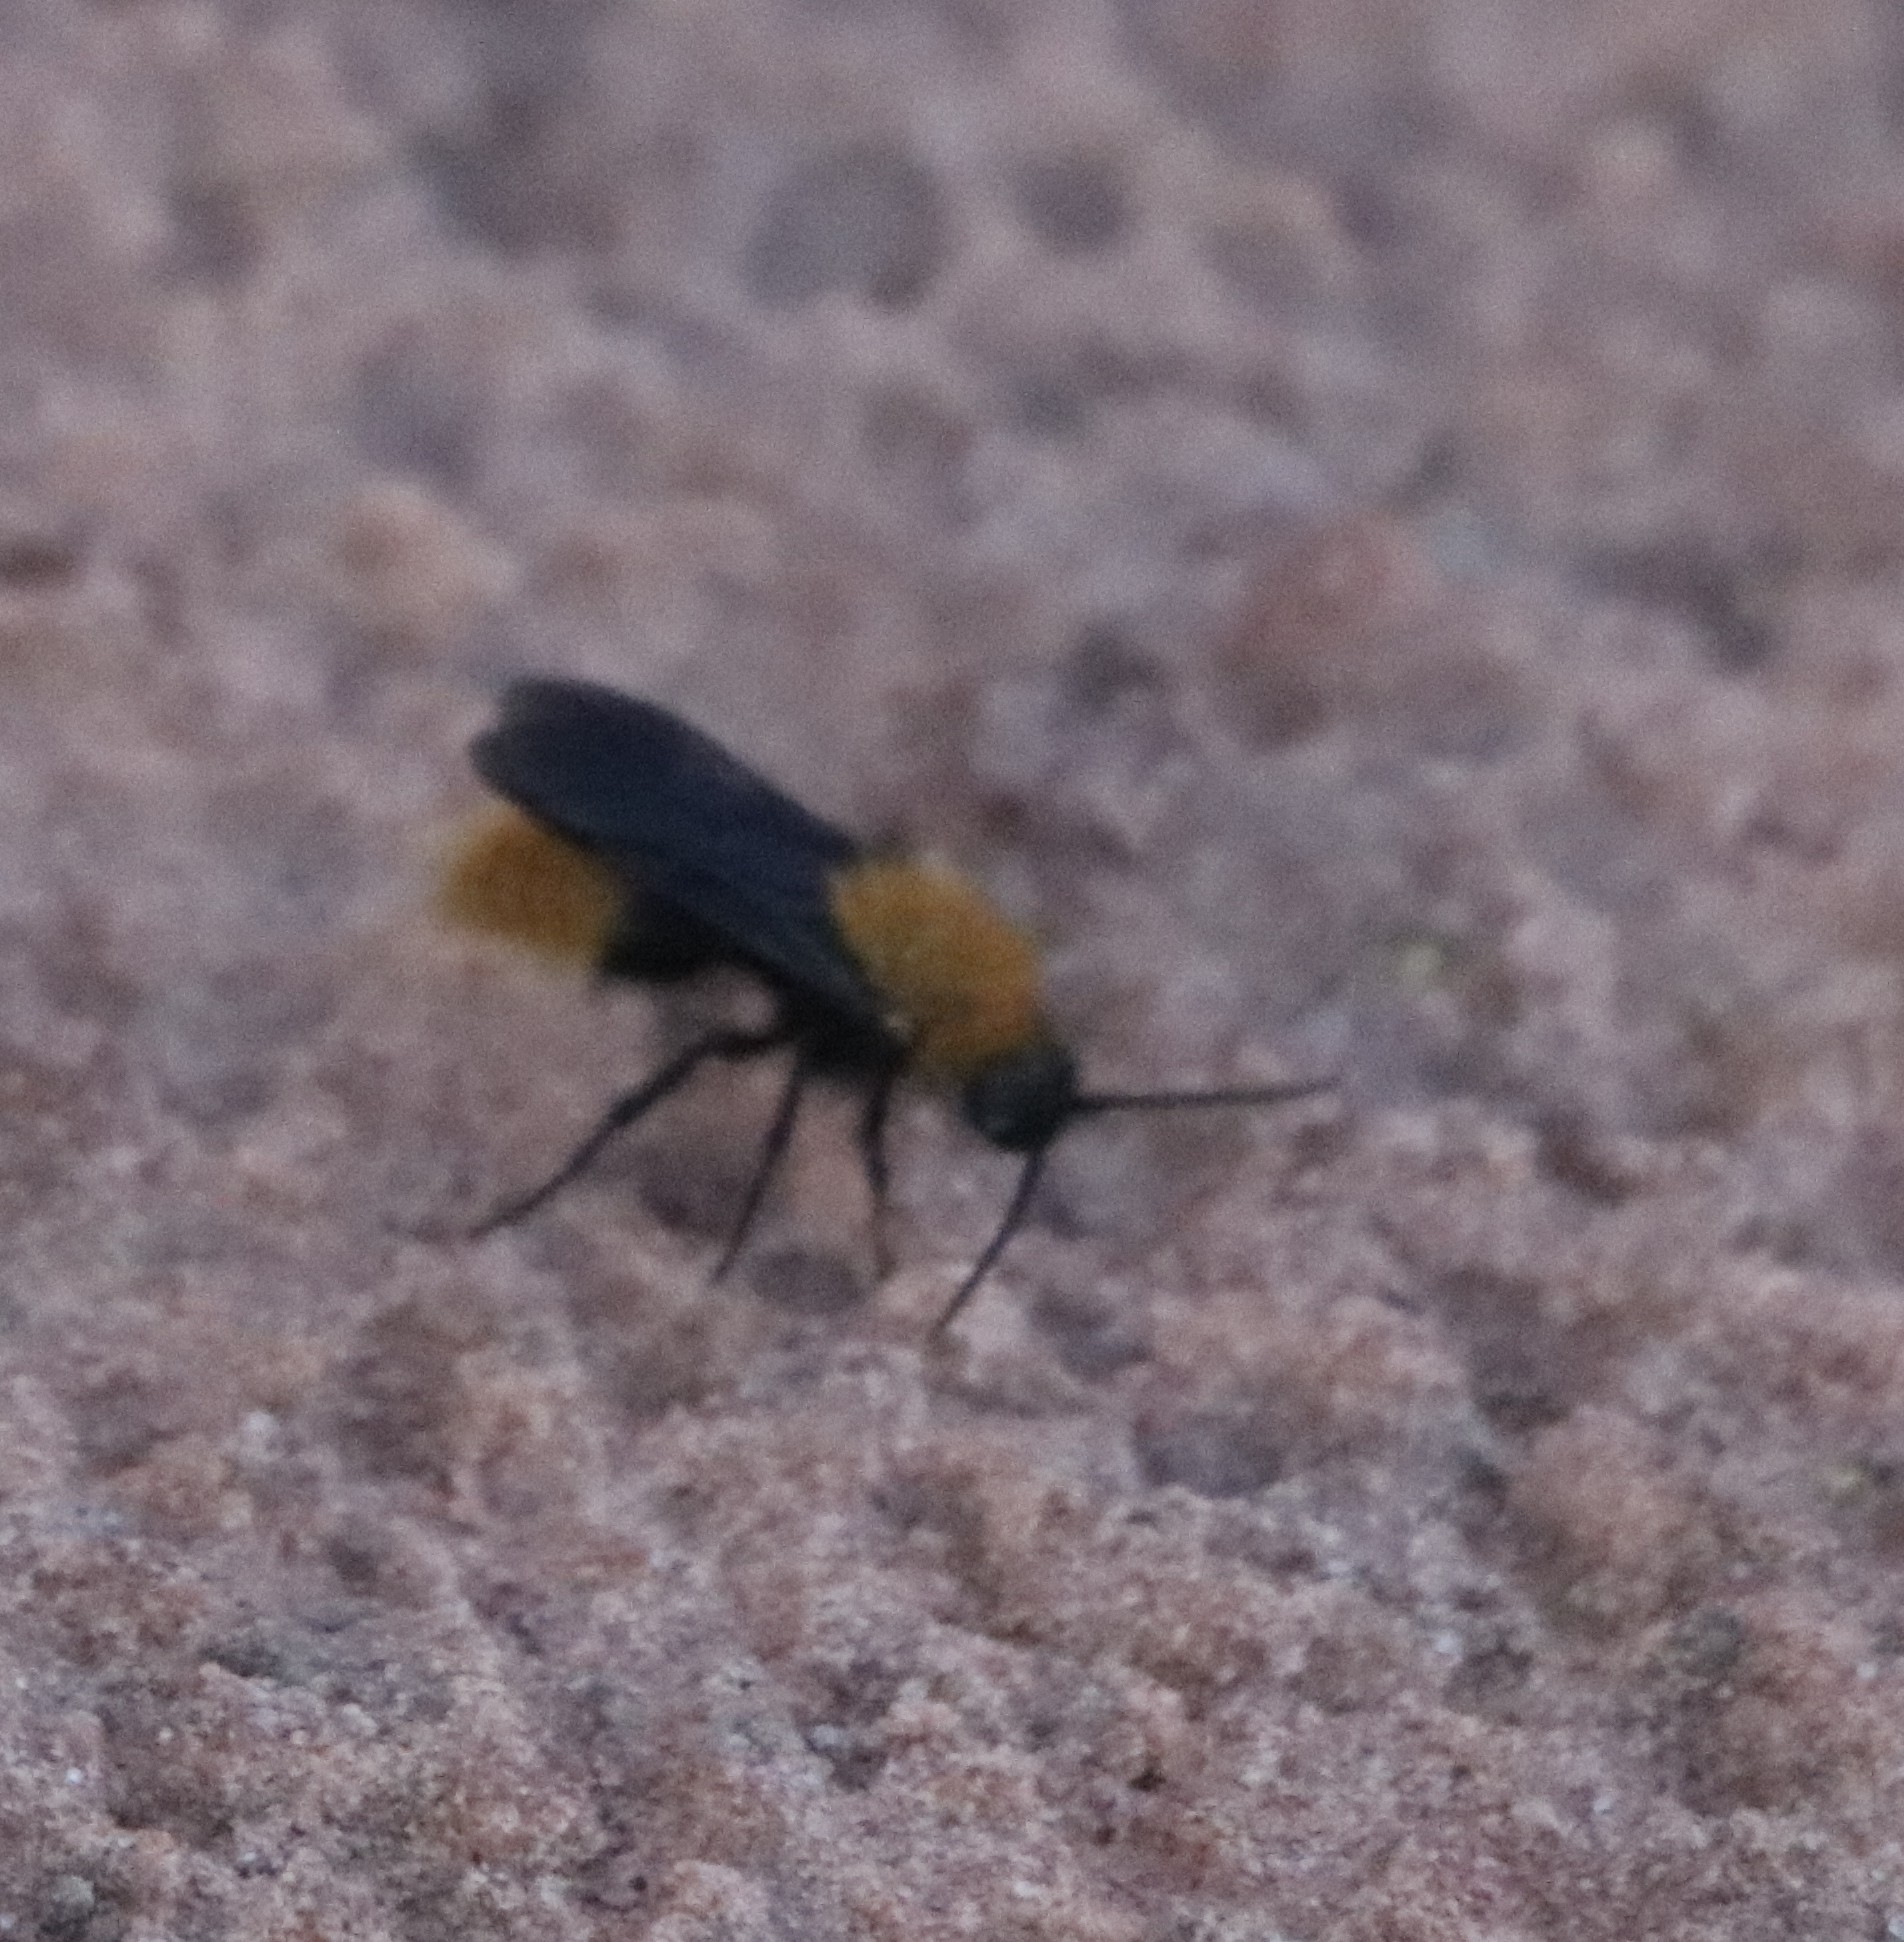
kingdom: Animalia
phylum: Arthropoda
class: Insecta
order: Hymenoptera
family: Mutillidae
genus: Dasymutilla
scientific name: Dasymutilla vestita
